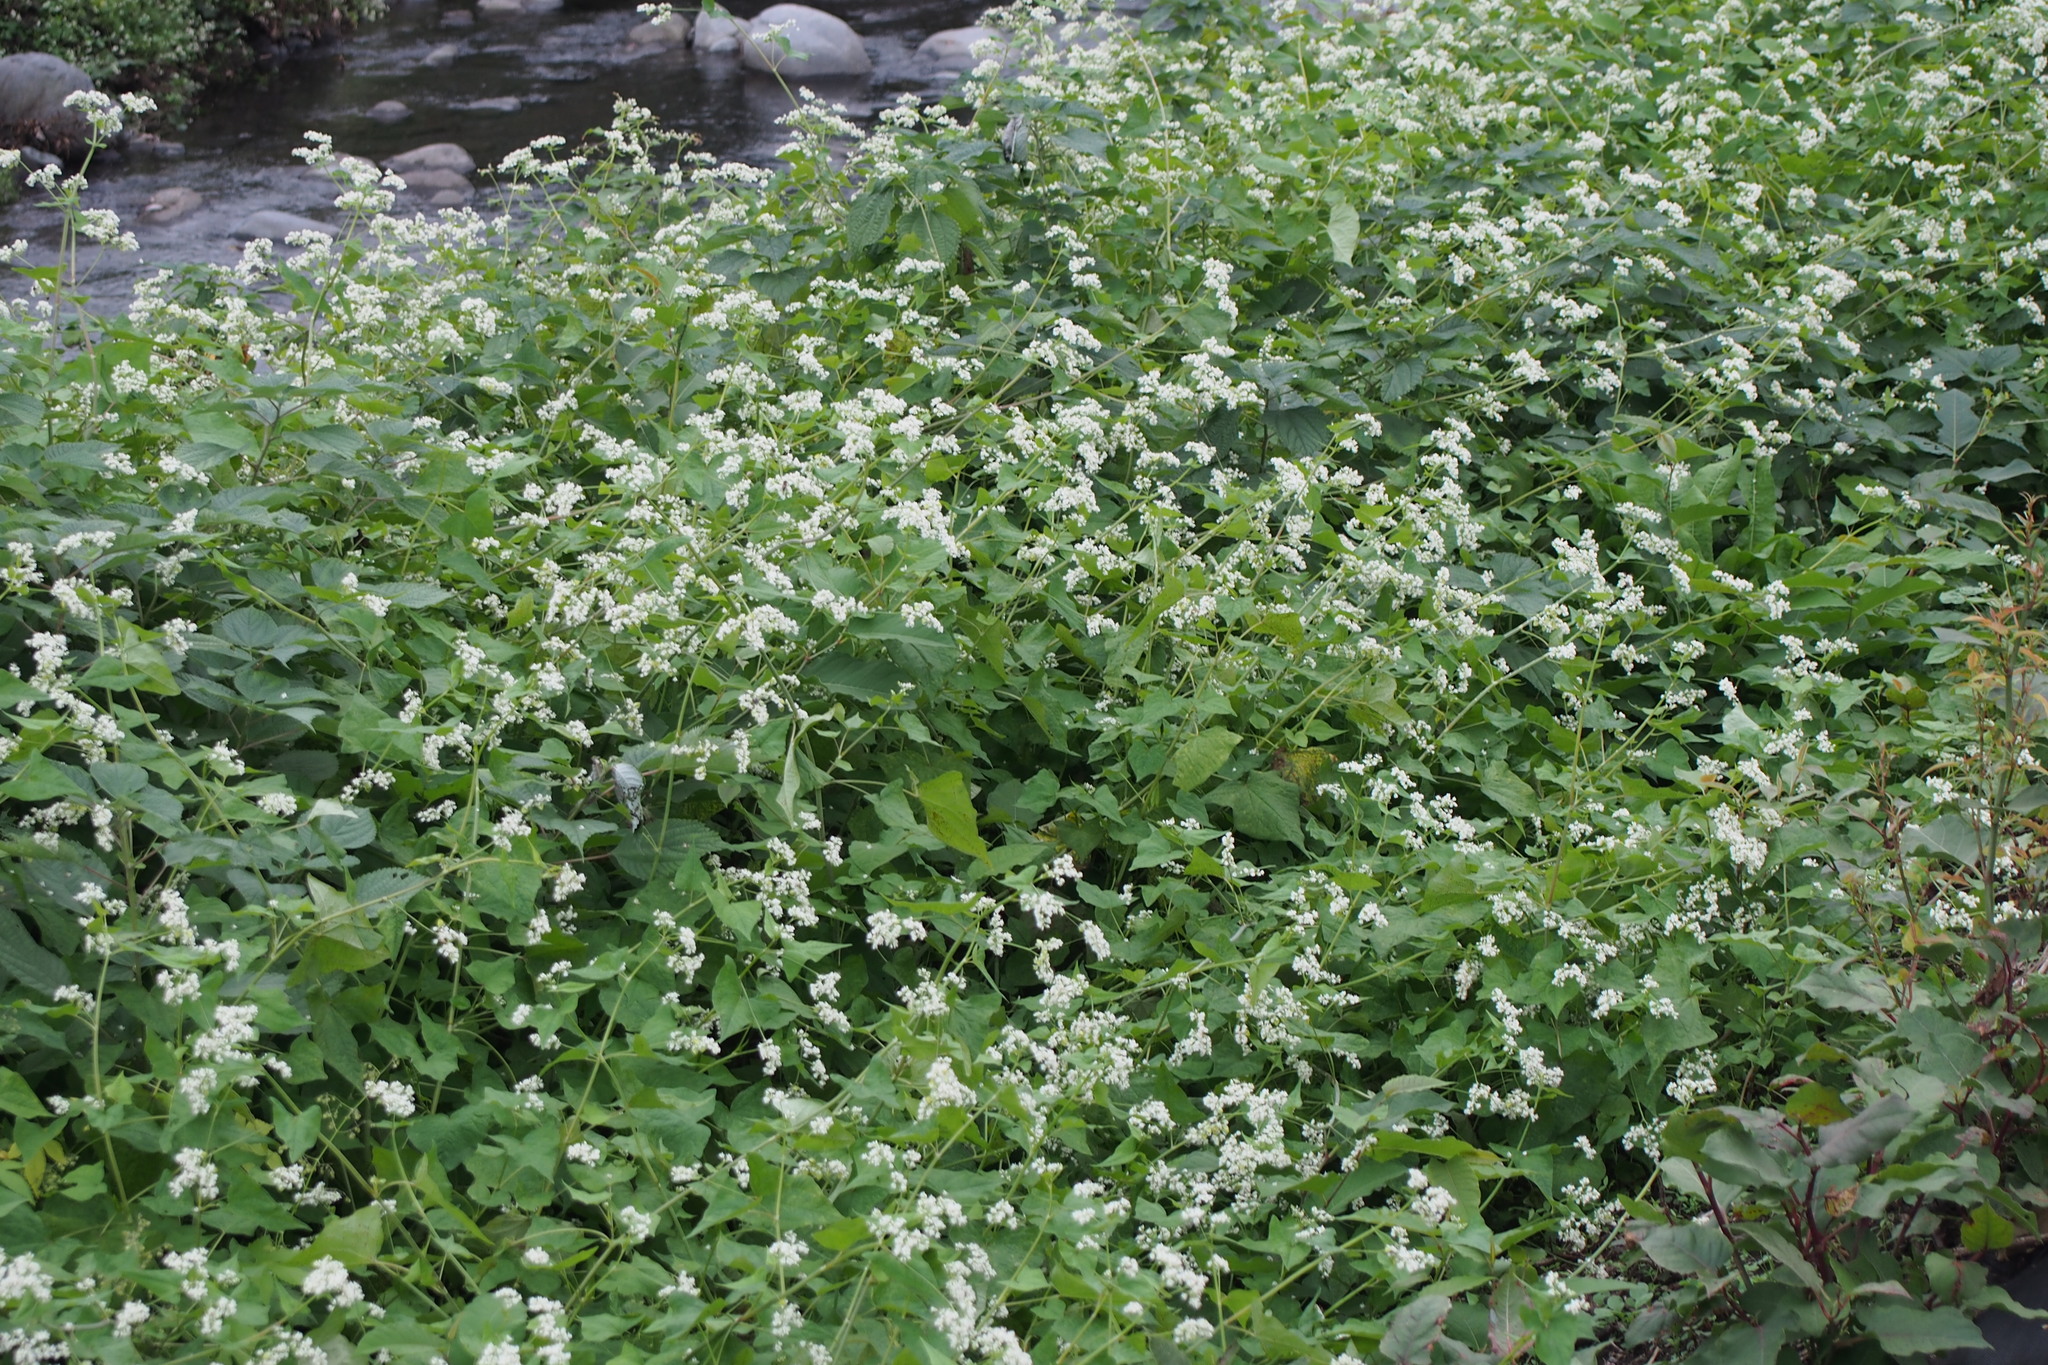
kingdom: Plantae
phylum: Tracheophyta
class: Magnoliopsida
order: Caryophyllales
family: Polygonaceae
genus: Fagopyrum
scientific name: Fagopyrum esculentum
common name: Buckwheat
